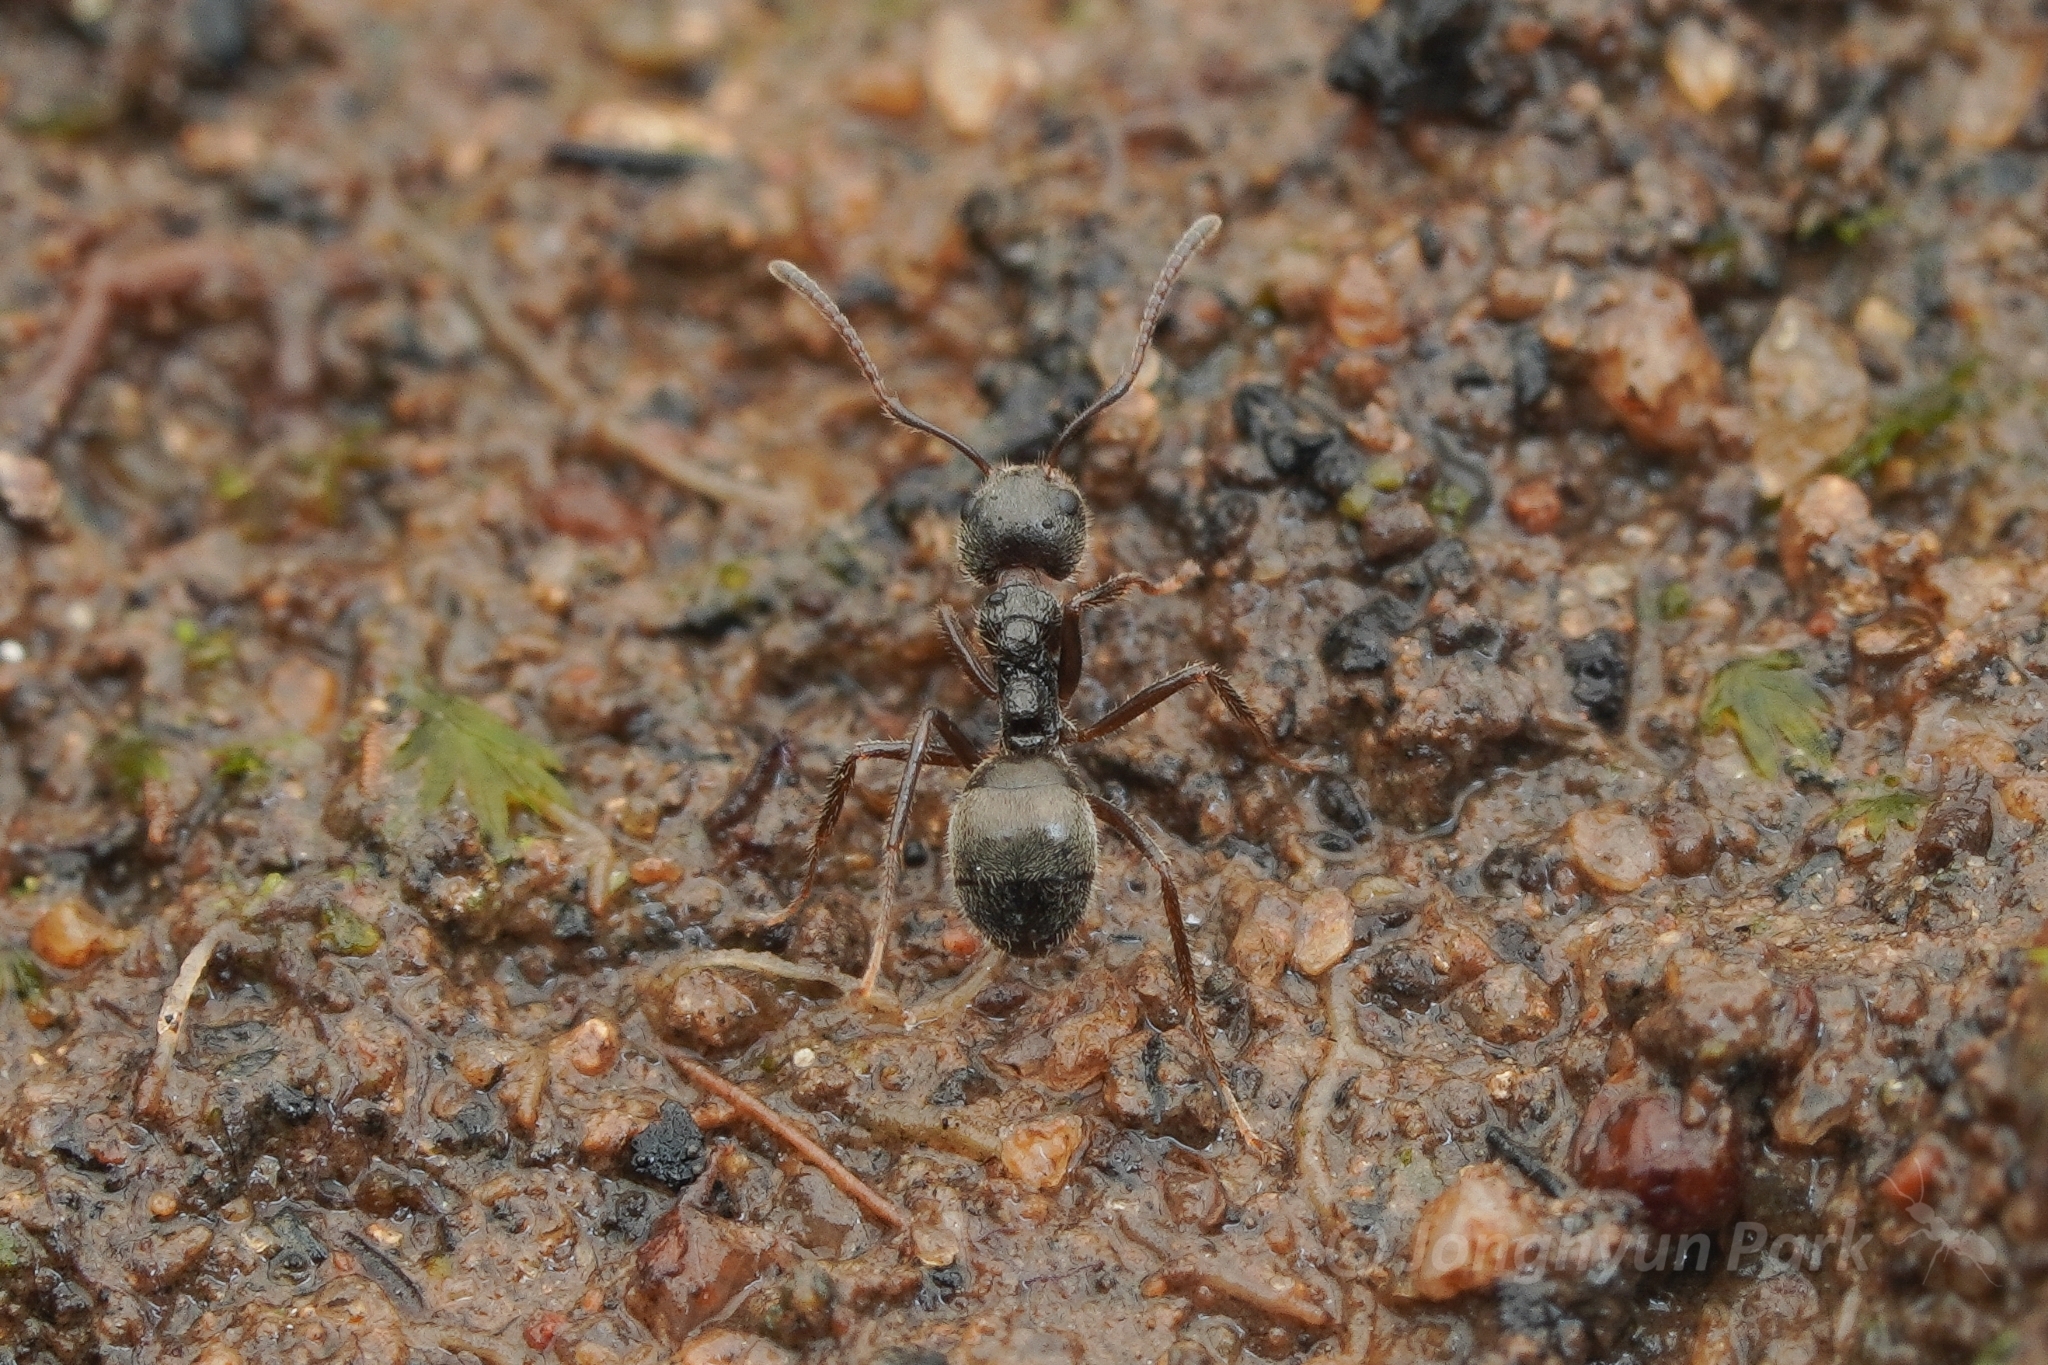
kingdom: Animalia
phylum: Arthropoda
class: Insecta
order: Hymenoptera
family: Formicidae
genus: Dolichoderus
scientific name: Dolichoderus thoracicus
